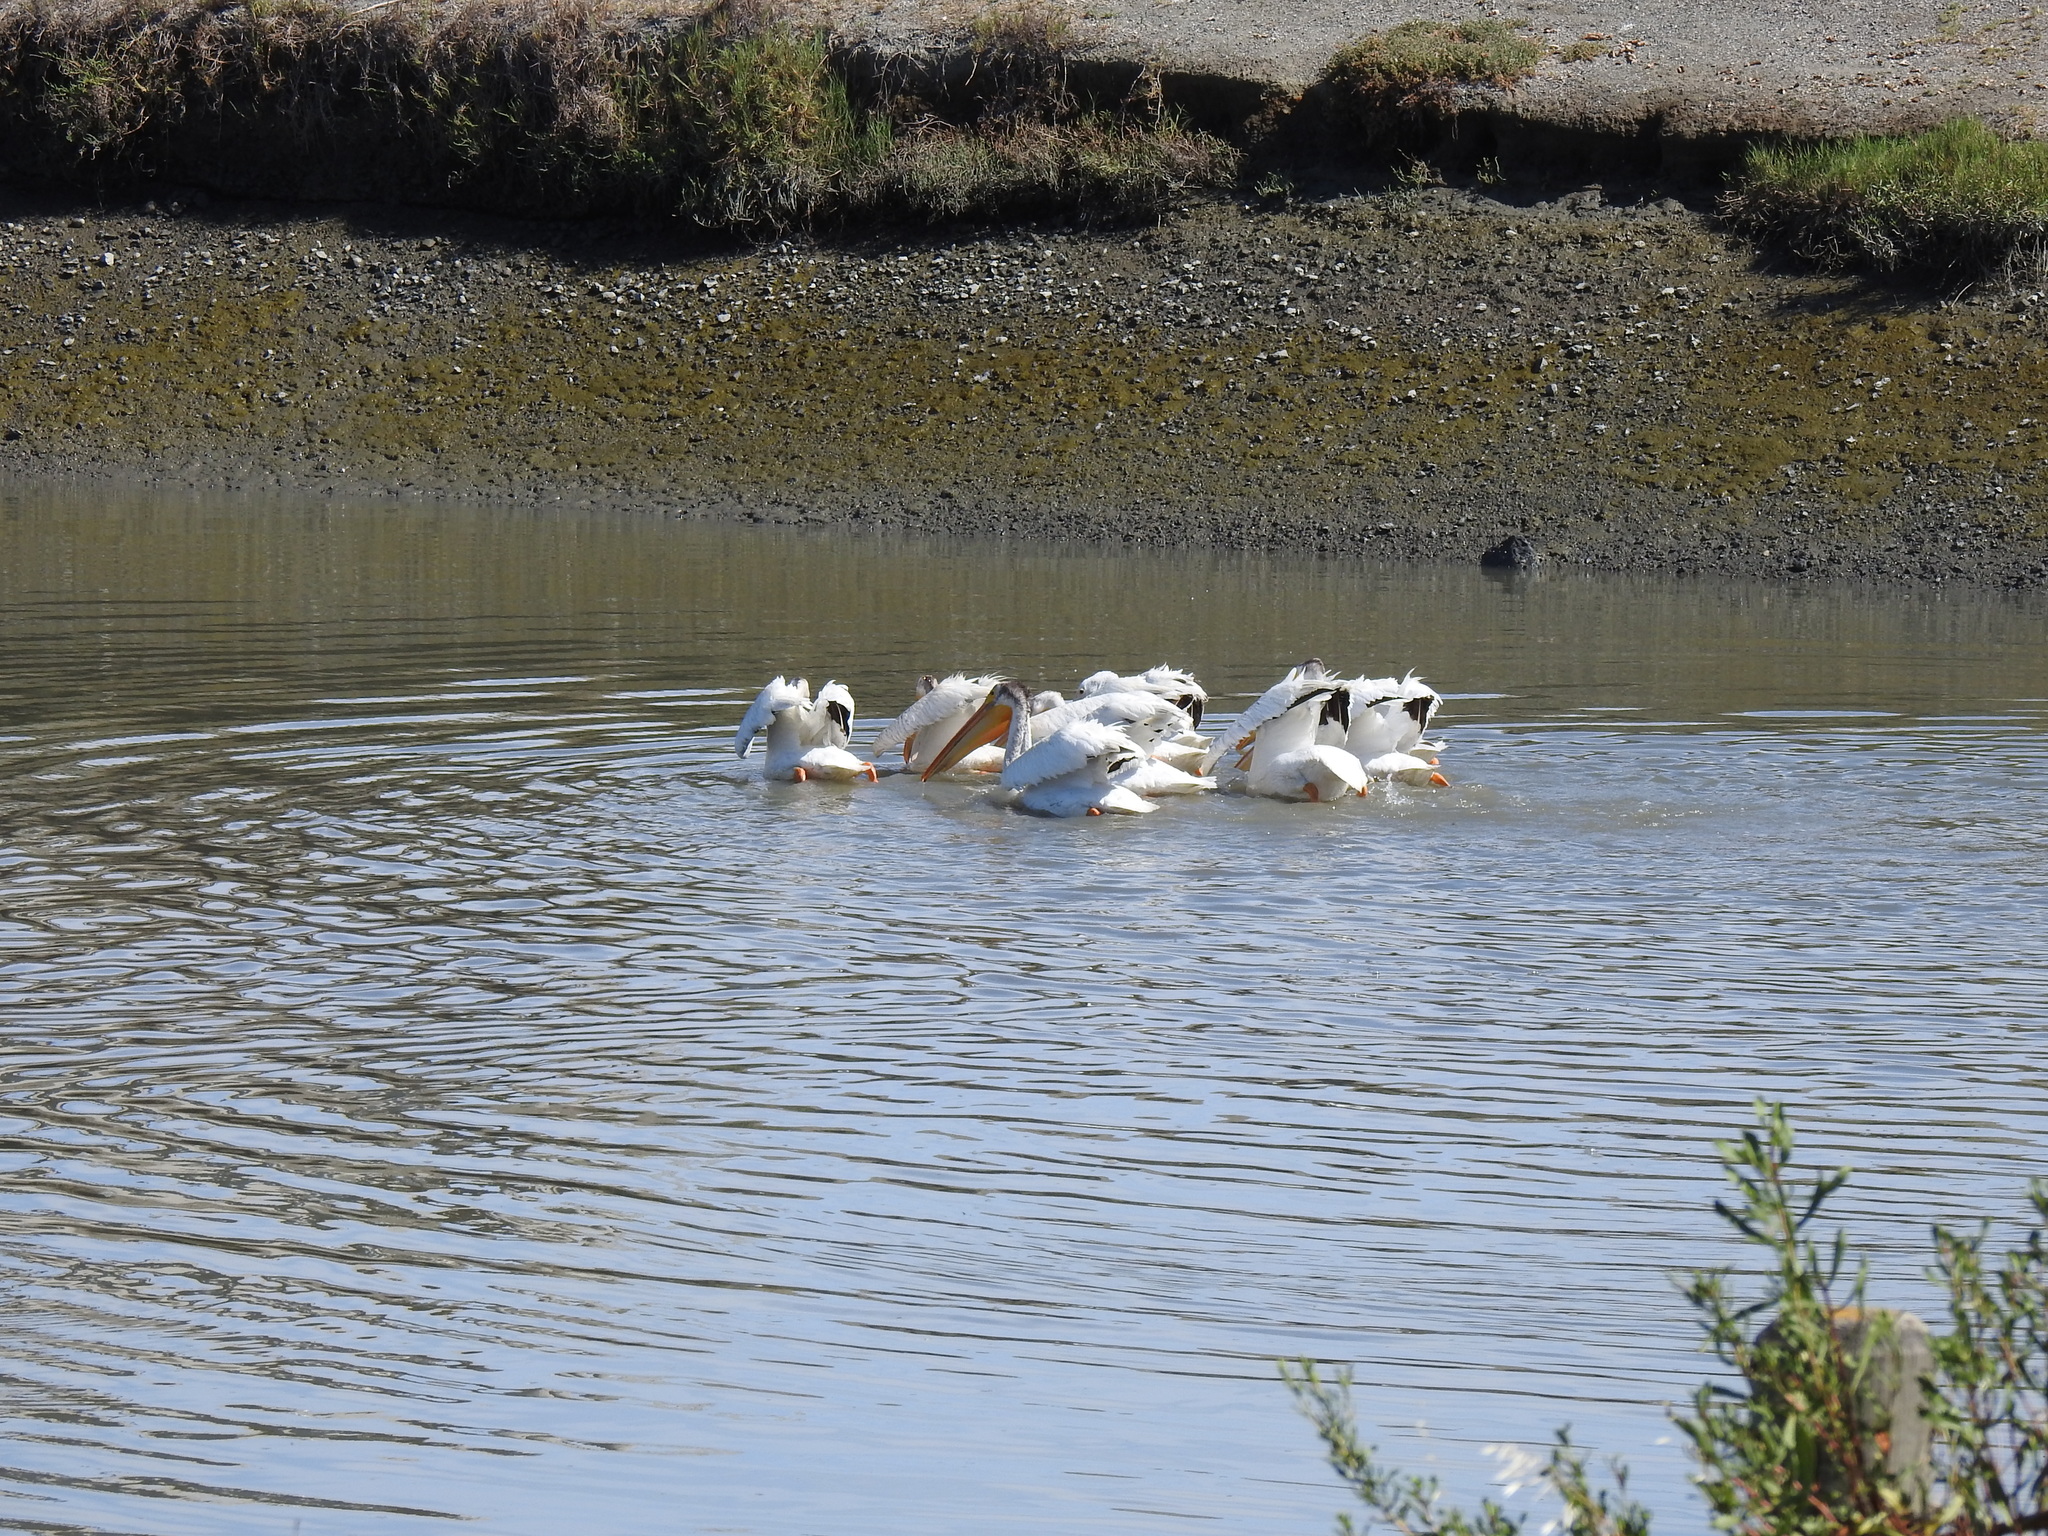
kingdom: Animalia
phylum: Chordata
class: Aves
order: Pelecaniformes
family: Pelecanidae
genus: Pelecanus
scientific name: Pelecanus erythrorhynchos
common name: American white pelican
